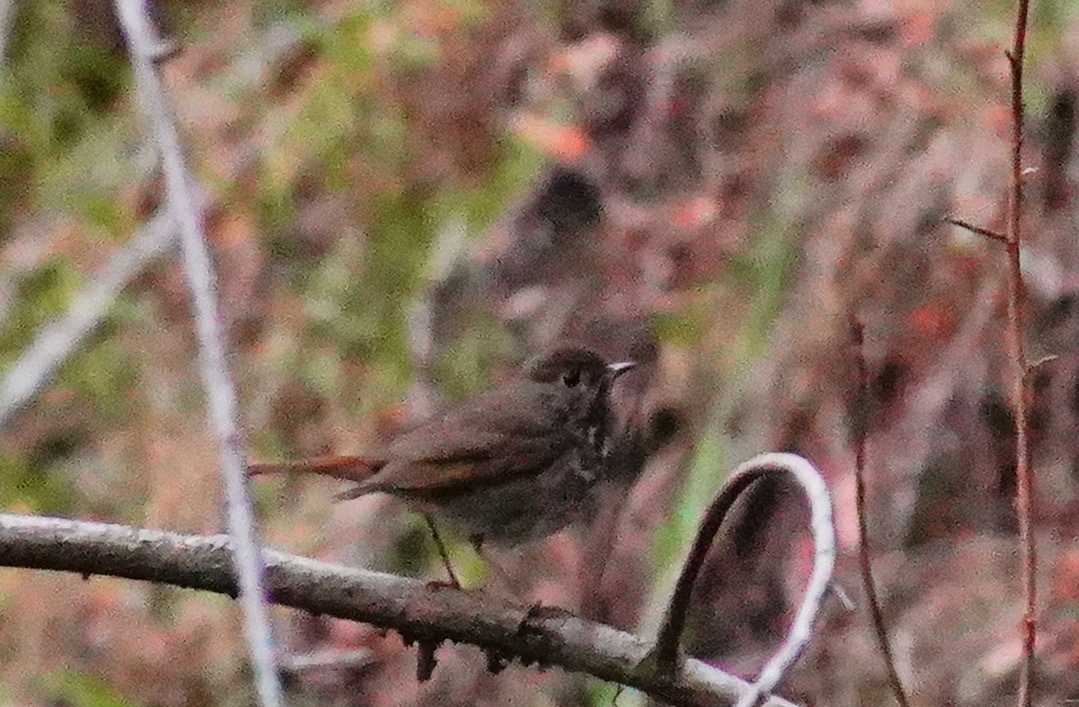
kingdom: Animalia
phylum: Chordata
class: Aves
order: Passeriformes
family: Turdidae
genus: Catharus
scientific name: Catharus guttatus
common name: Hermit thrush
